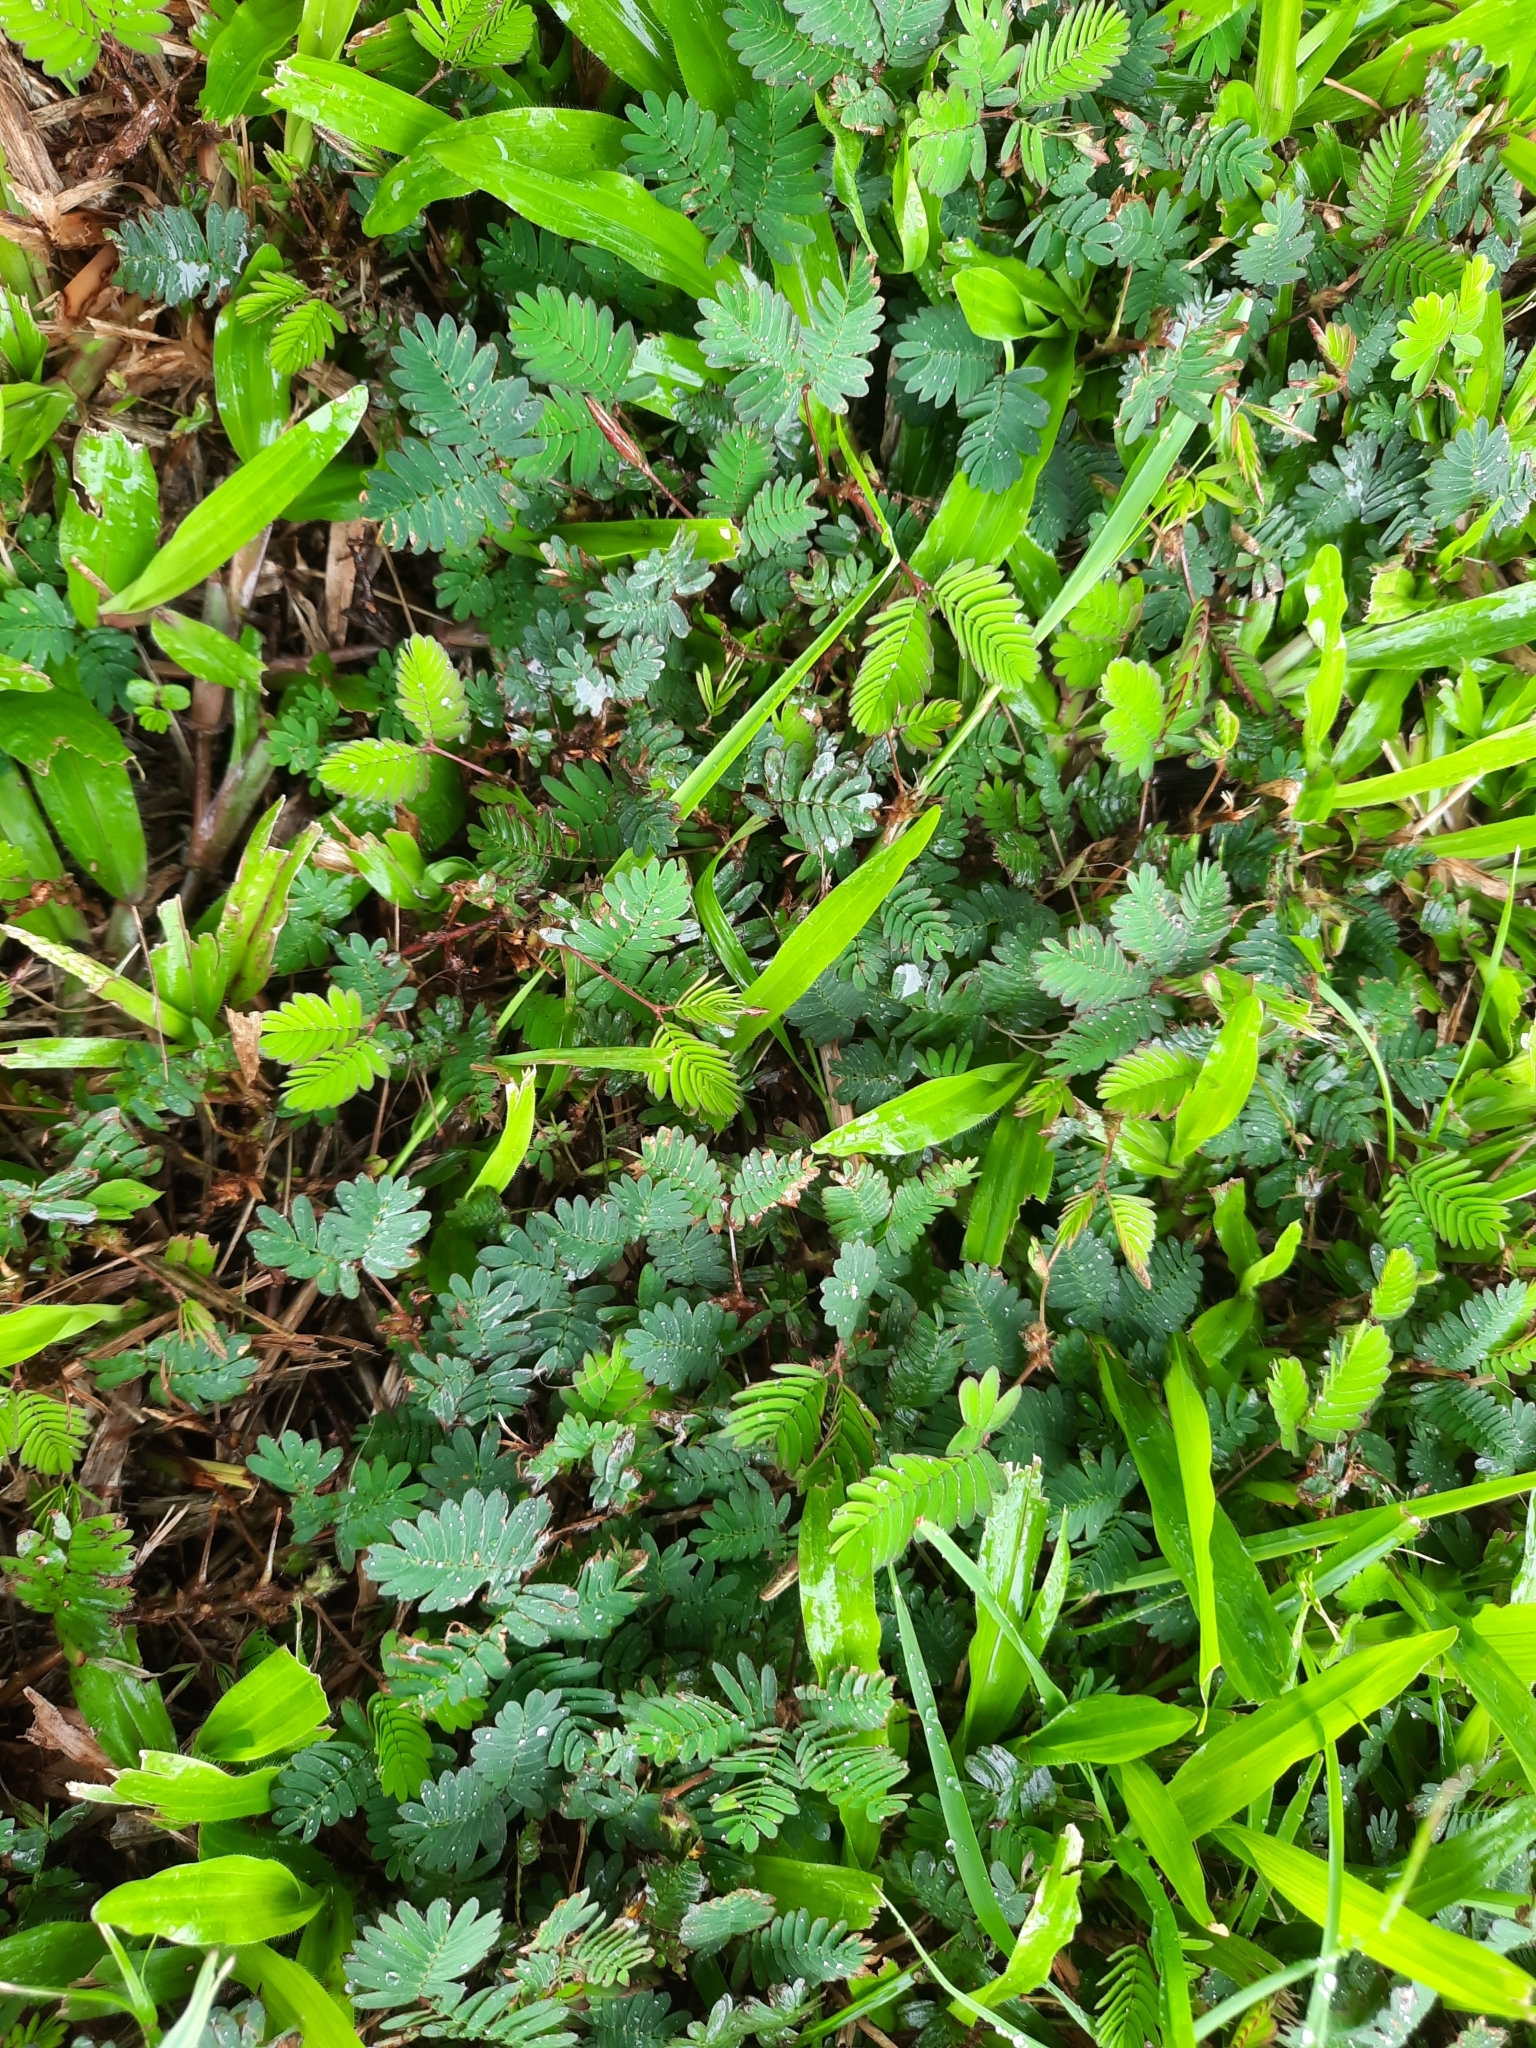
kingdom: Plantae
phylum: Tracheophyta
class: Magnoliopsida
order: Fabales
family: Fabaceae
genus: Mimosa
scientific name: Mimosa pudica
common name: Sensitive plant
